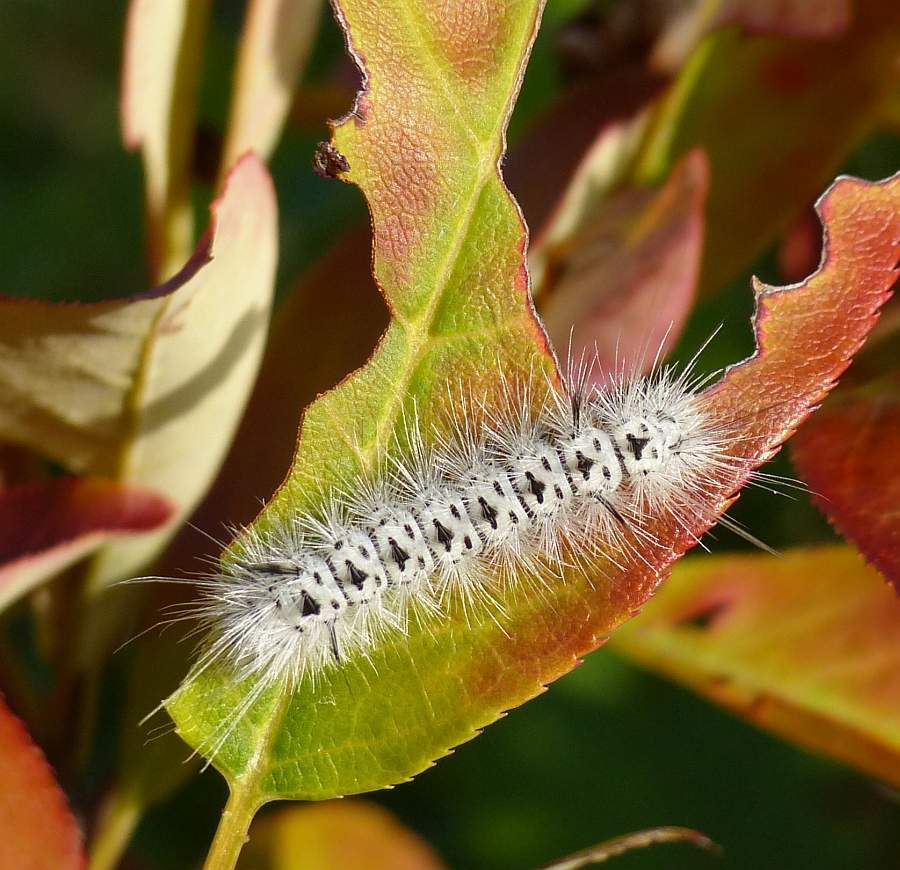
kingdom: Animalia
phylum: Arthropoda
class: Insecta
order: Lepidoptera
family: Erebidae
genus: Lophocampa
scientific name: Lophocampa caryae
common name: Hickory tussock moth
